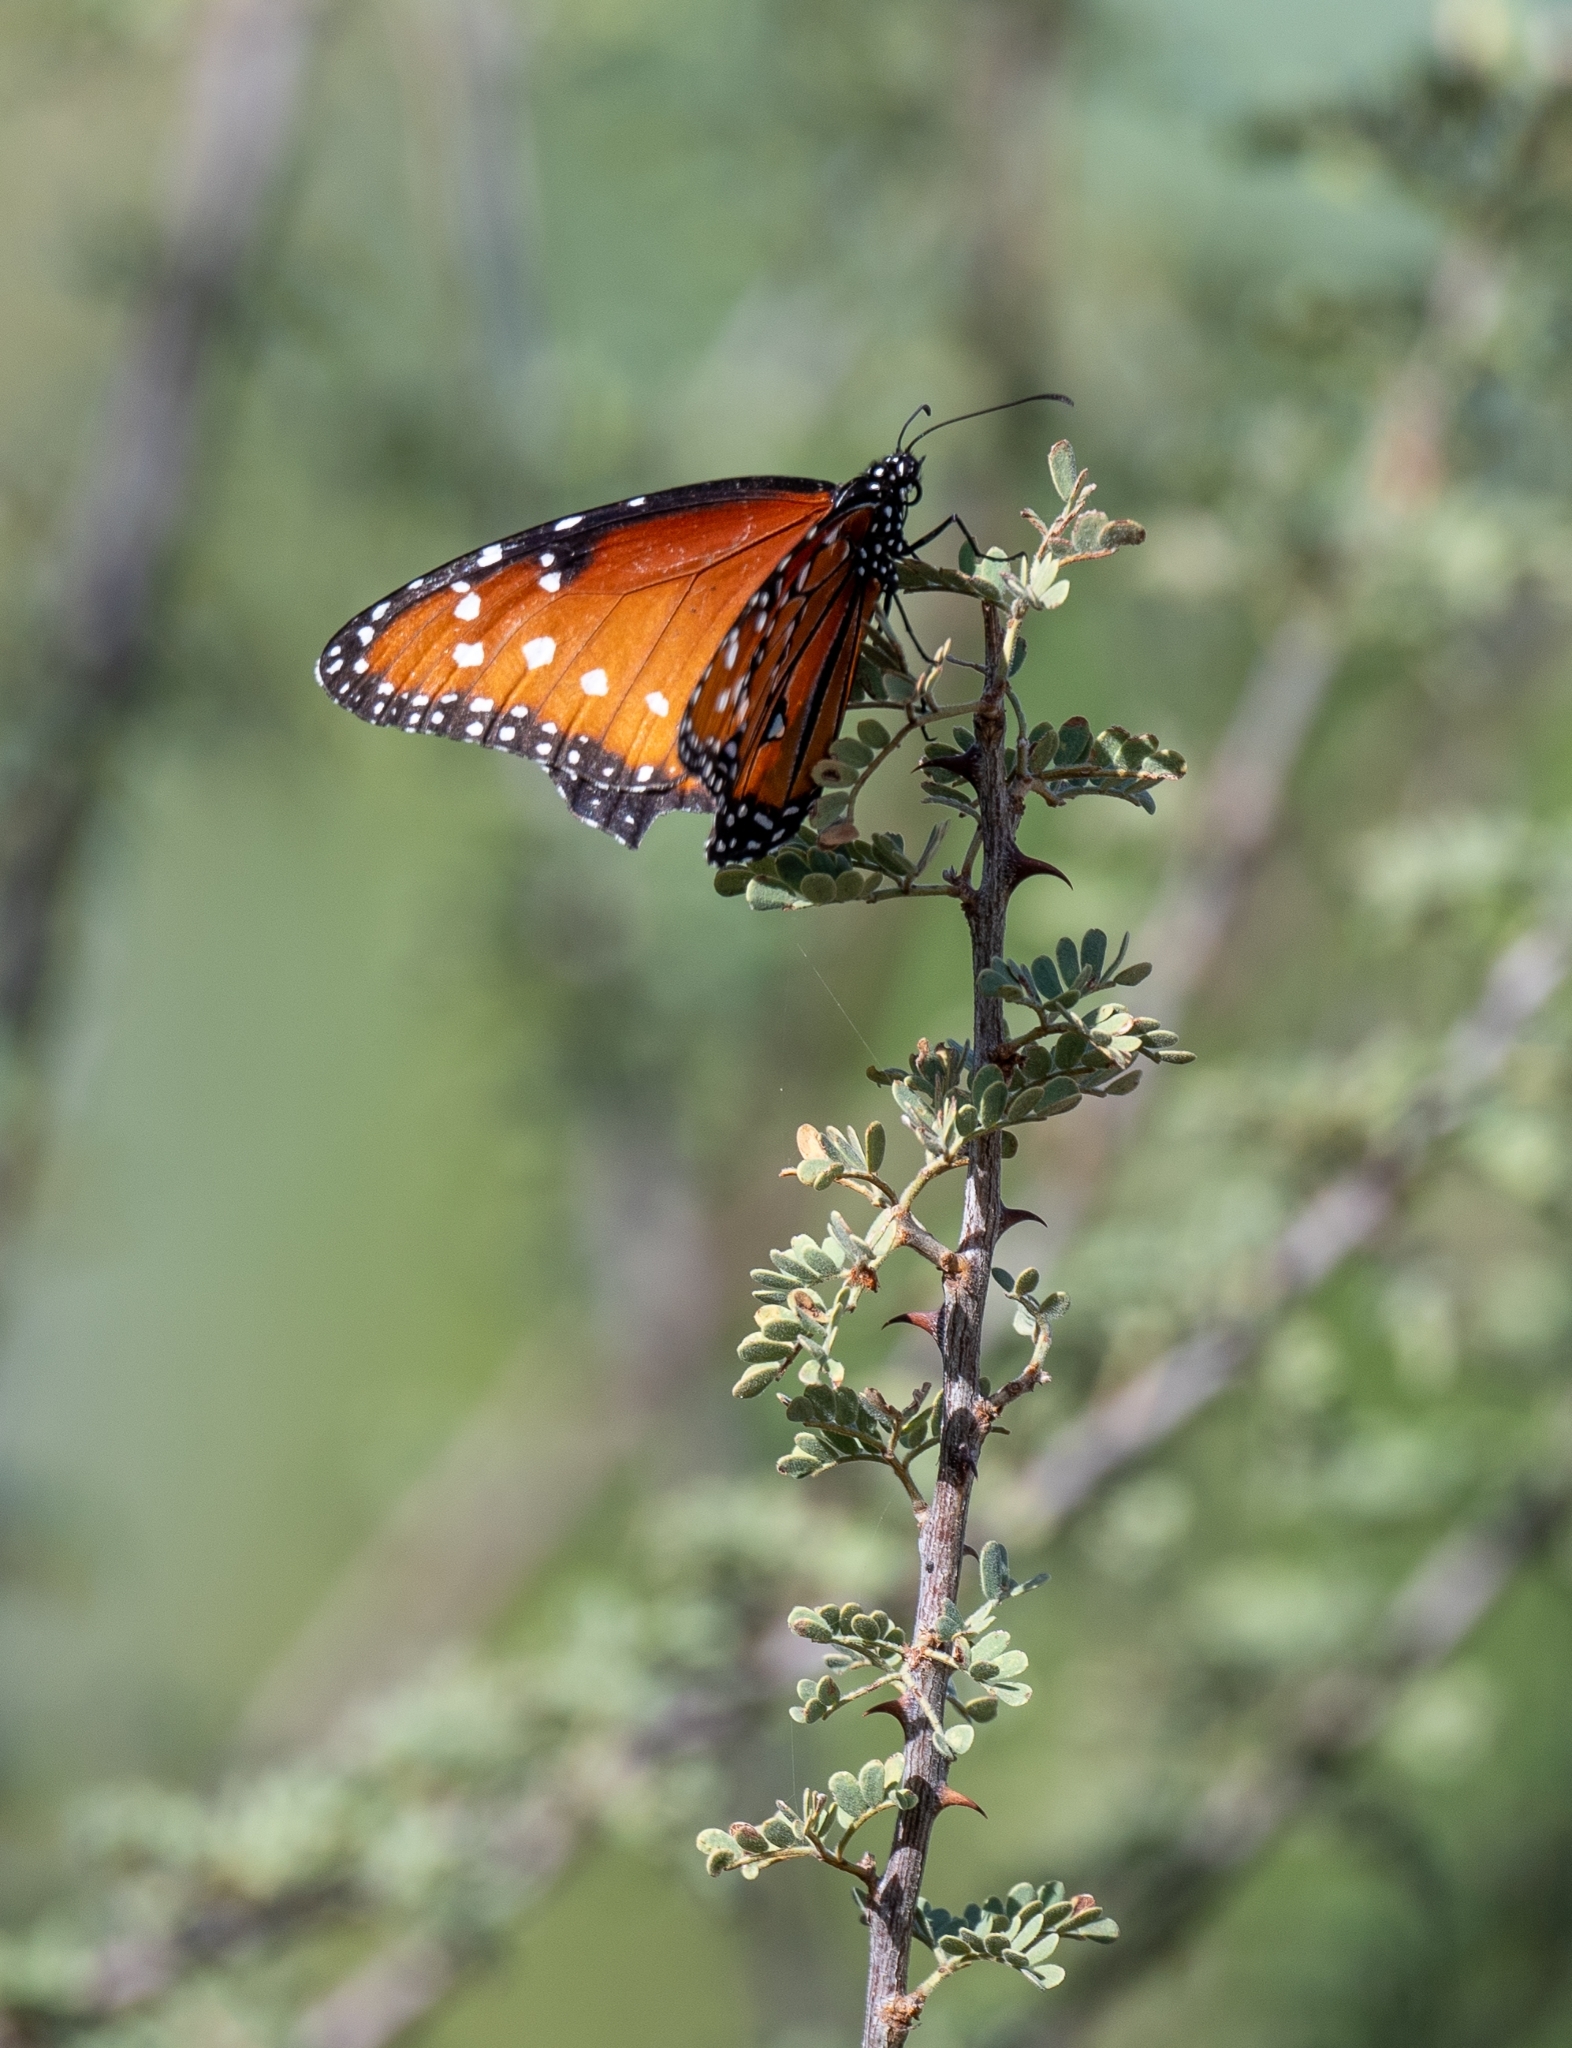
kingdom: Animalia
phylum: Arthropoda
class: Insecta
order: Lepidoptera
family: Nymphalidae
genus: Danaus
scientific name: Danaus gilippus
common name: Queen
